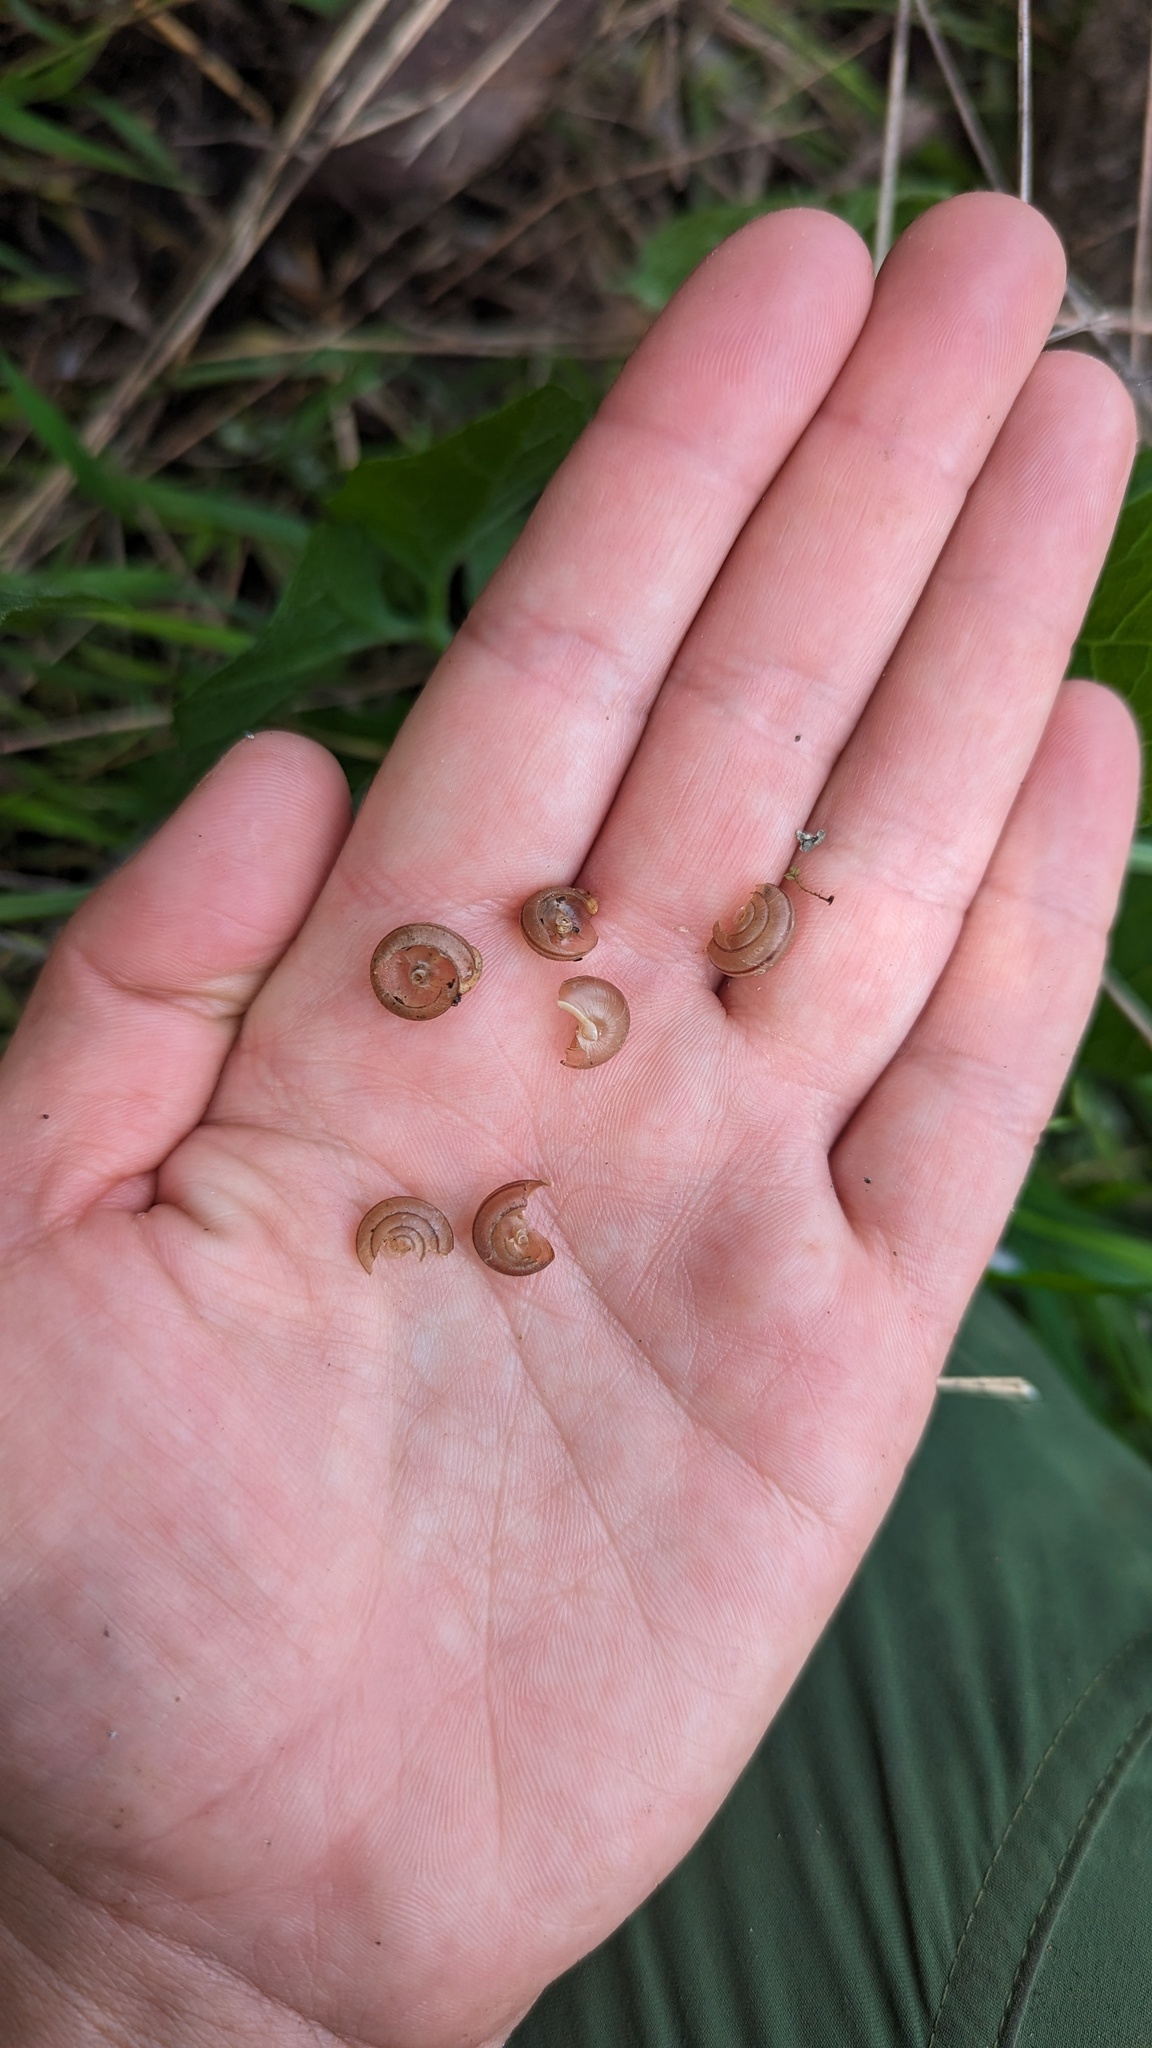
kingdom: Animalia
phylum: Mollusca
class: Gastropoda
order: Stylommatophora
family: Xanthonychidae
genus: Micrarionta
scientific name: Micrarionta beatula
